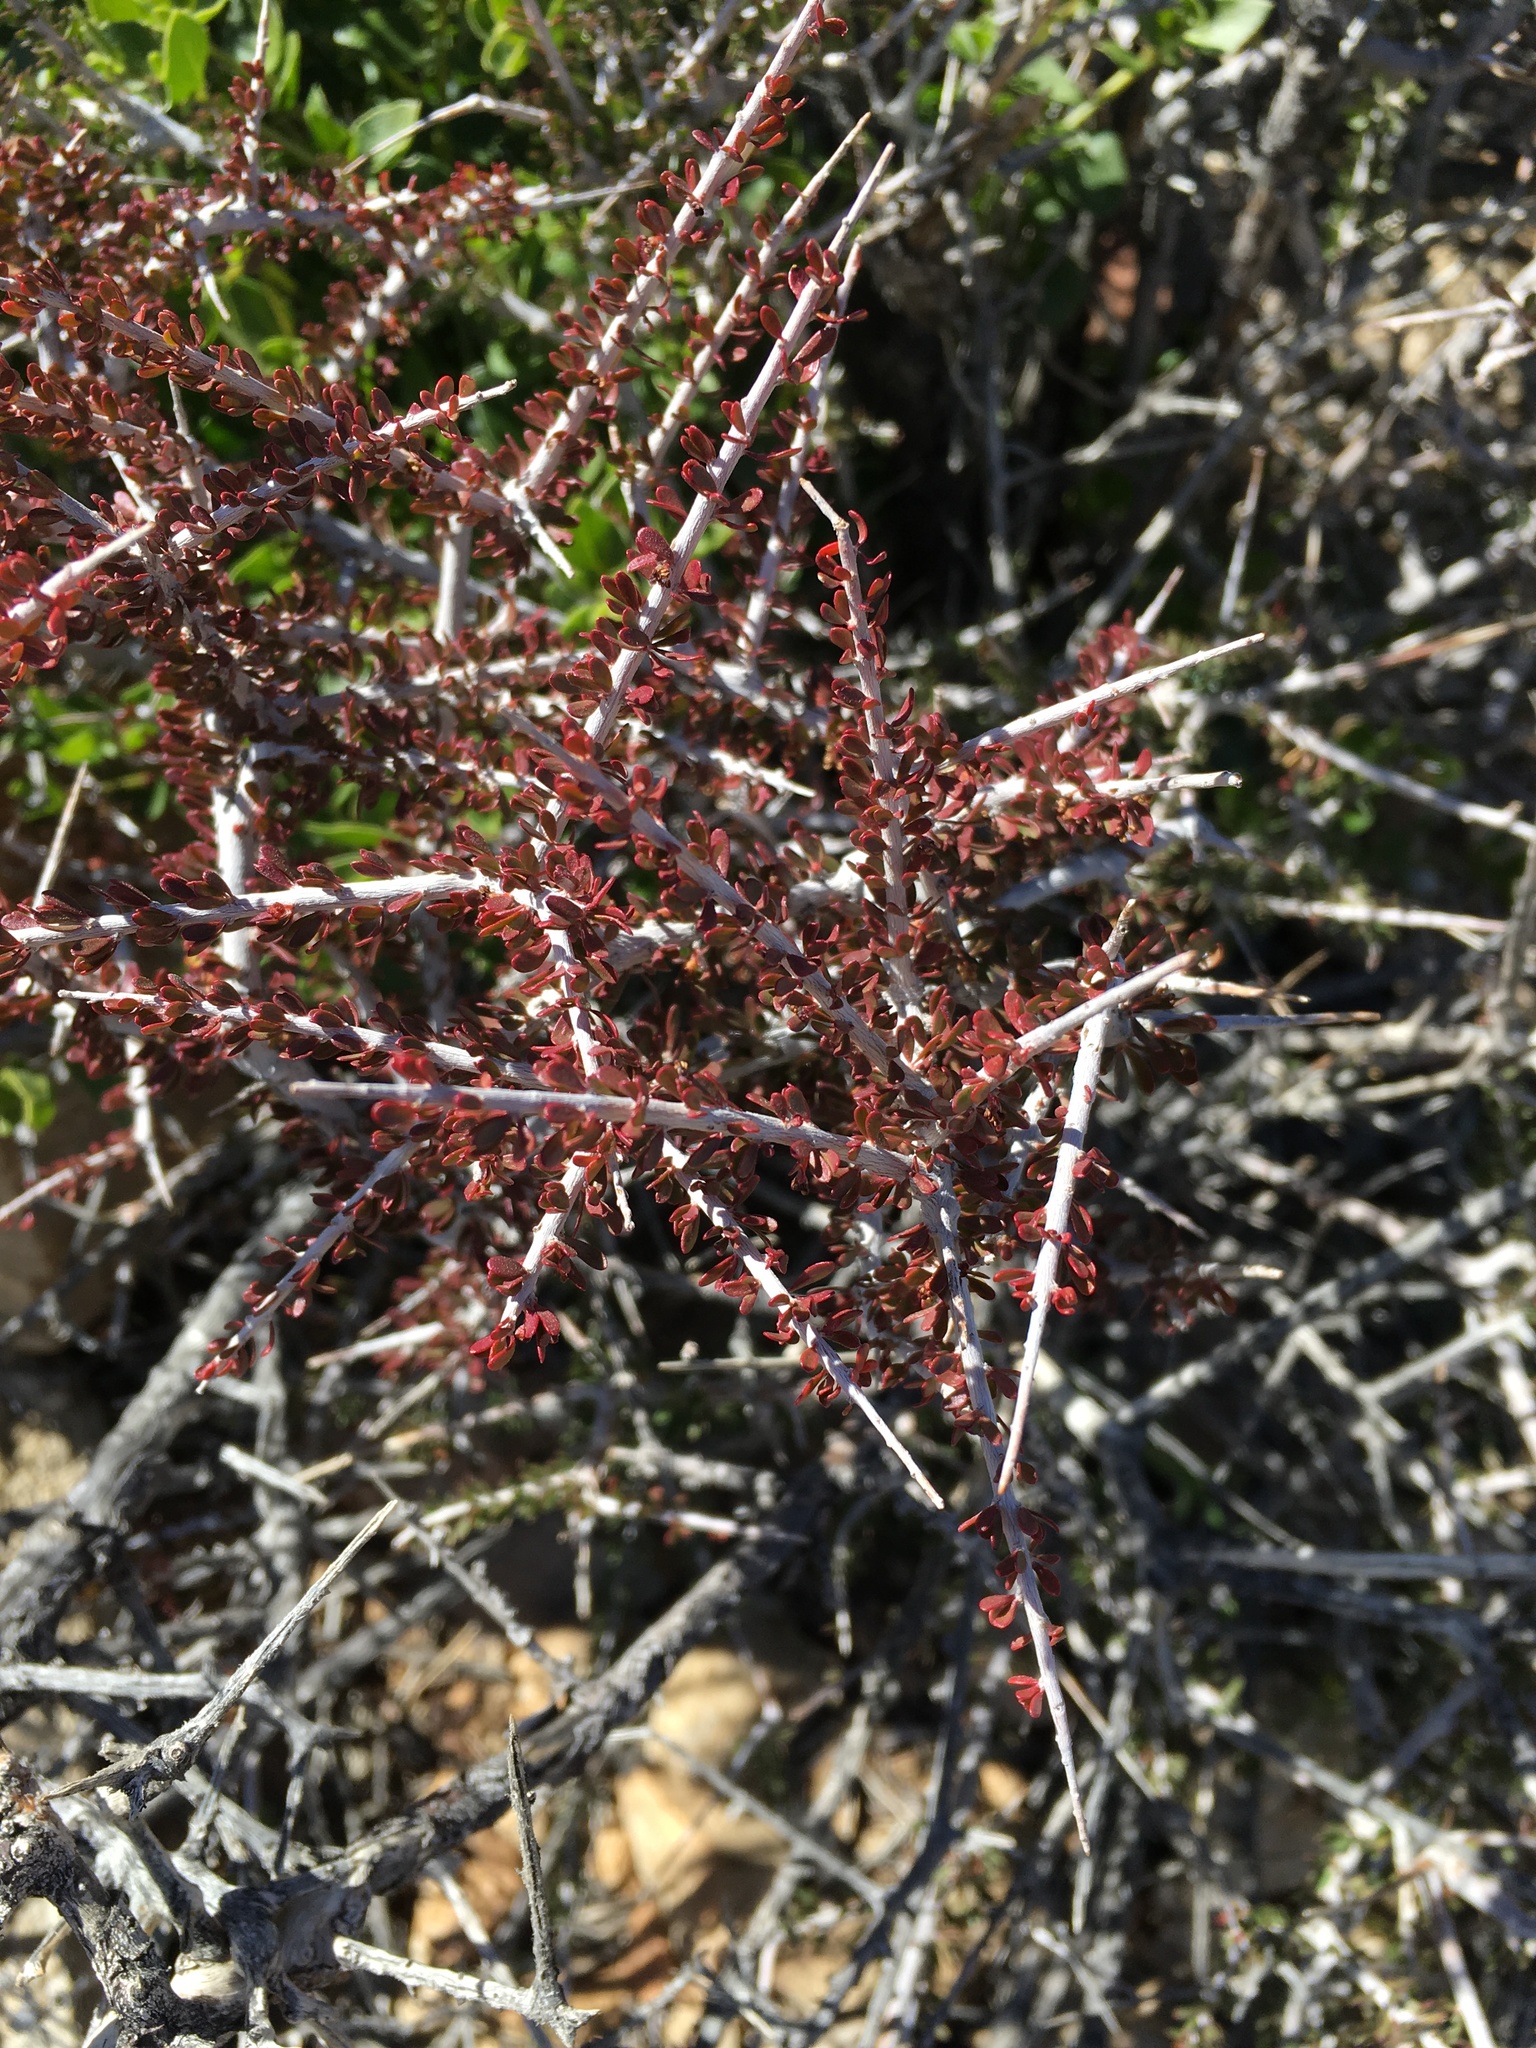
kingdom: Plantae
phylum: Tracheophyta
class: Magnoliopsida
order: Malpighiales
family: Picrodendraceae
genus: Tetracoccus
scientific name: Tetracoccus hallii
